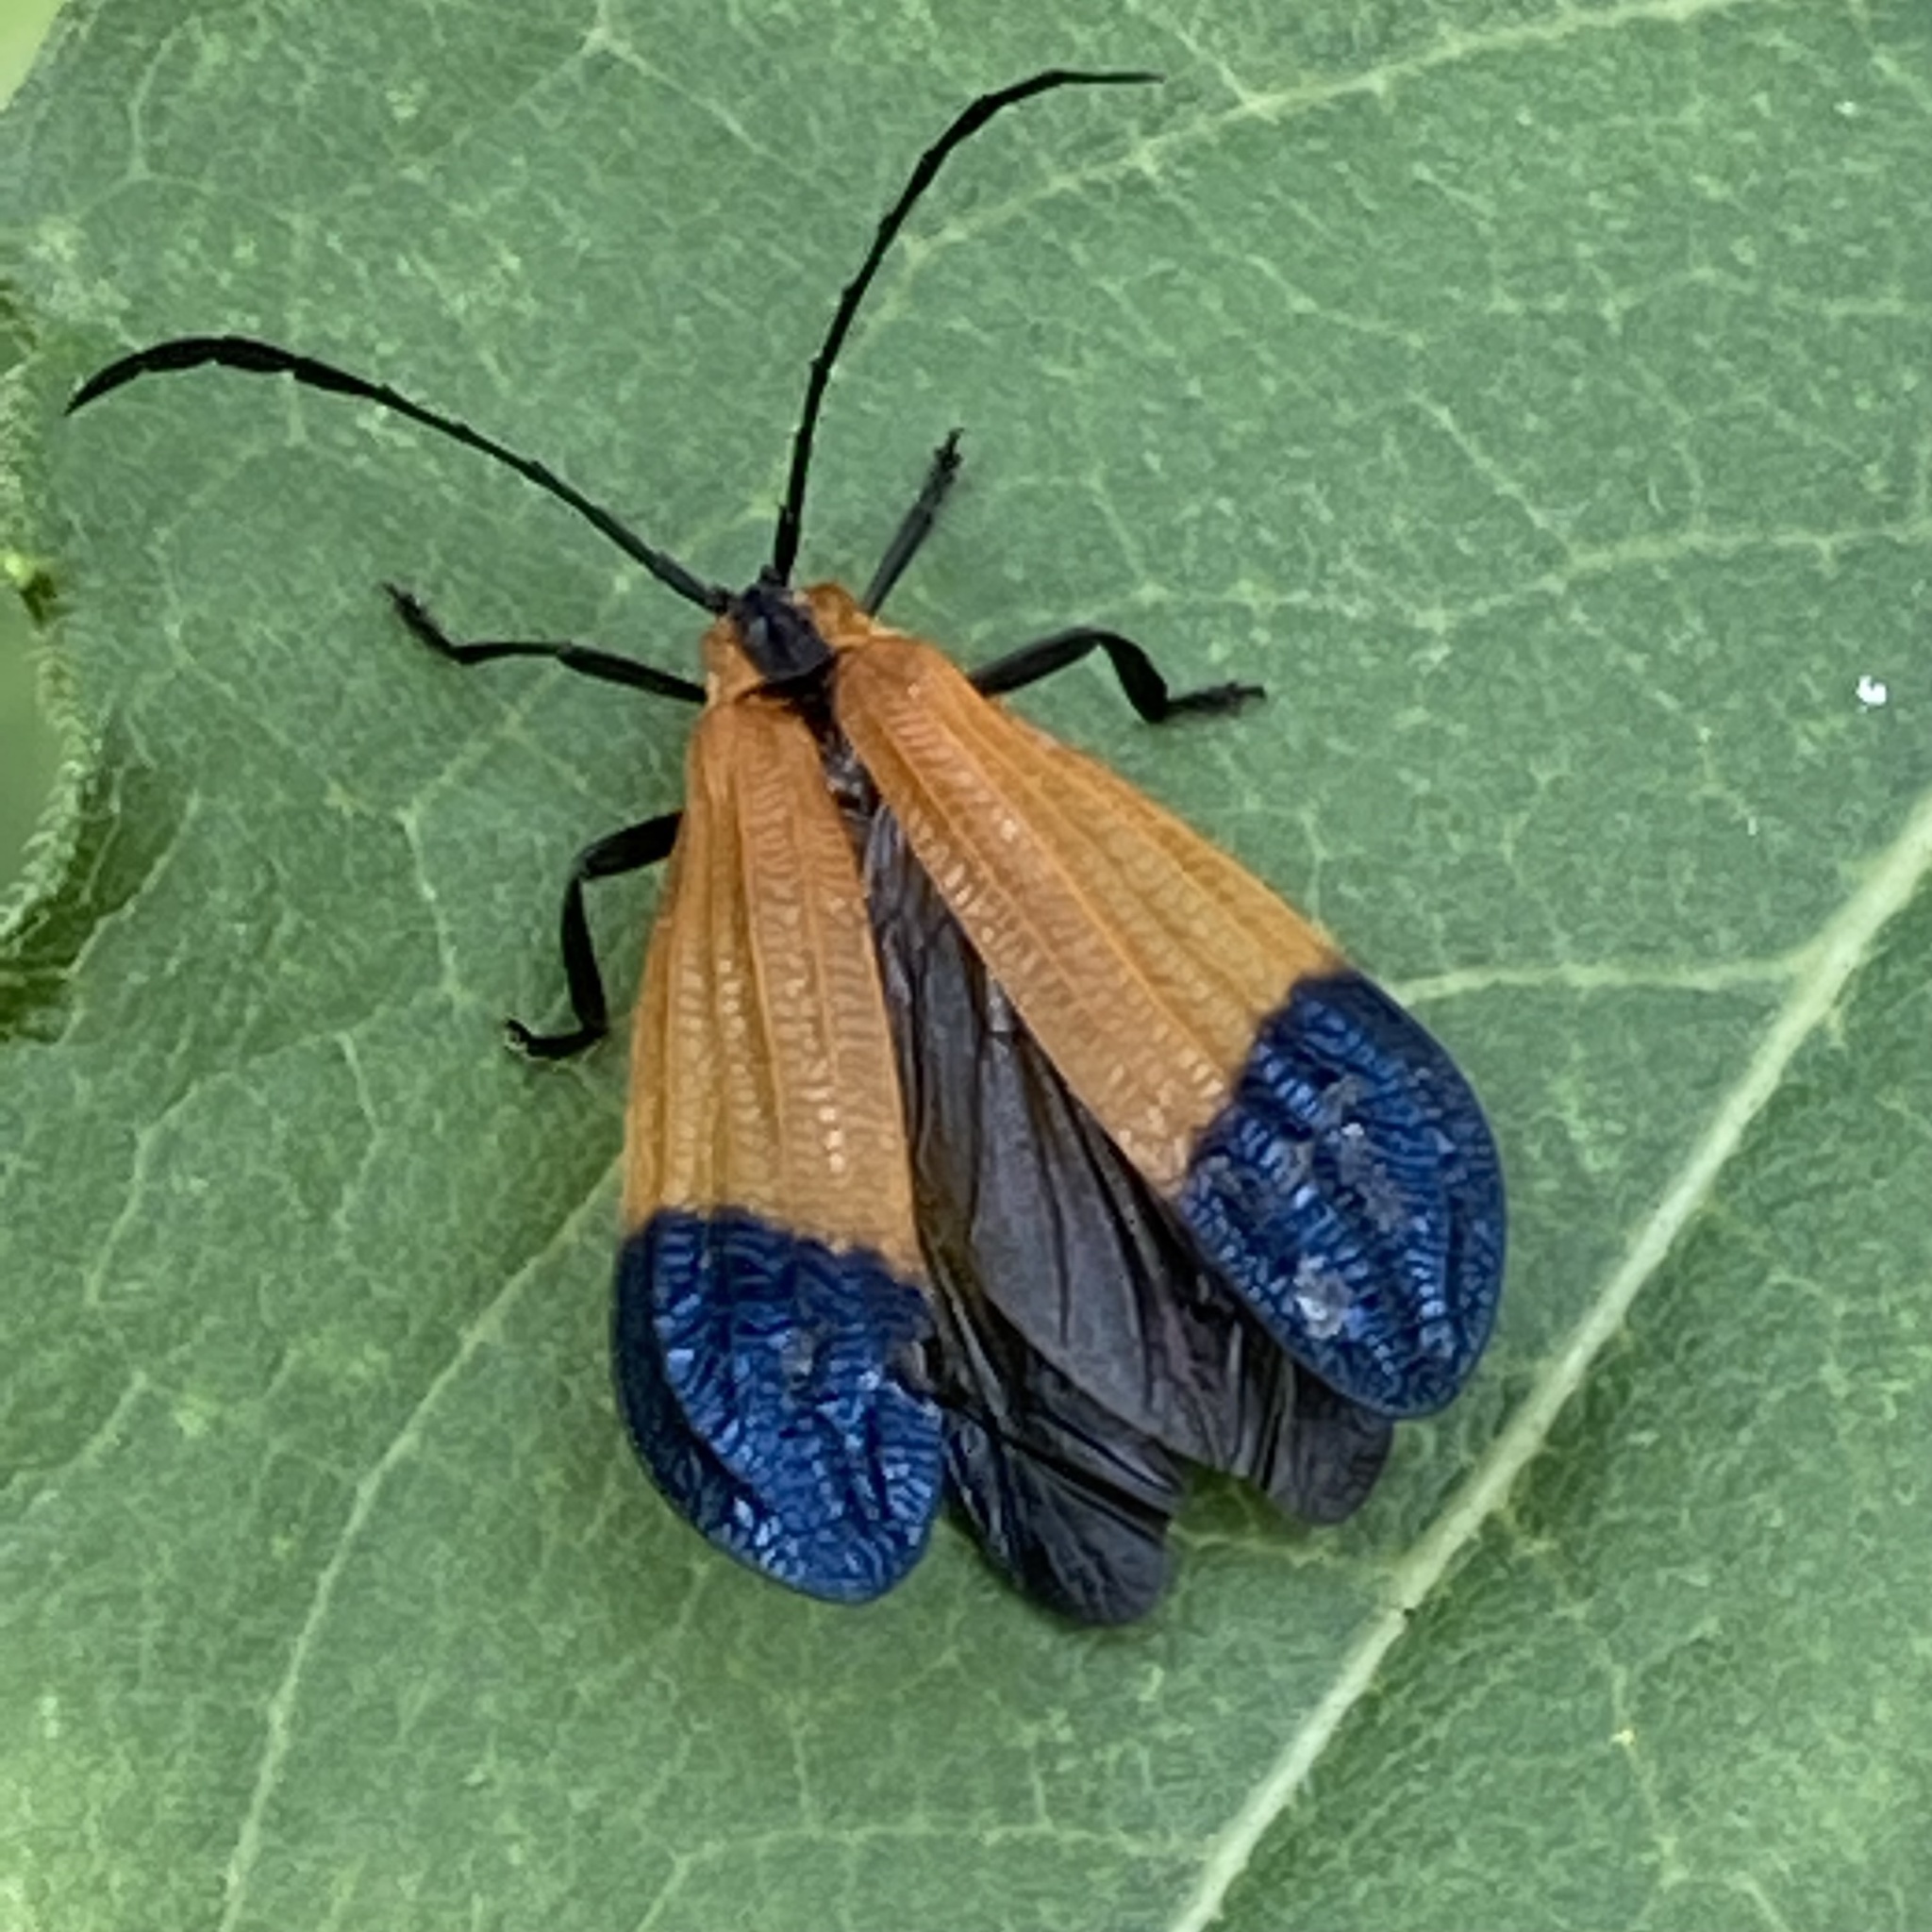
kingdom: Animalia
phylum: Arthropoda
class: Insecta
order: Coleoptera
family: Lycidae
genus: Calopteron
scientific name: Calopteron terminale
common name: End band net-winged beetle
